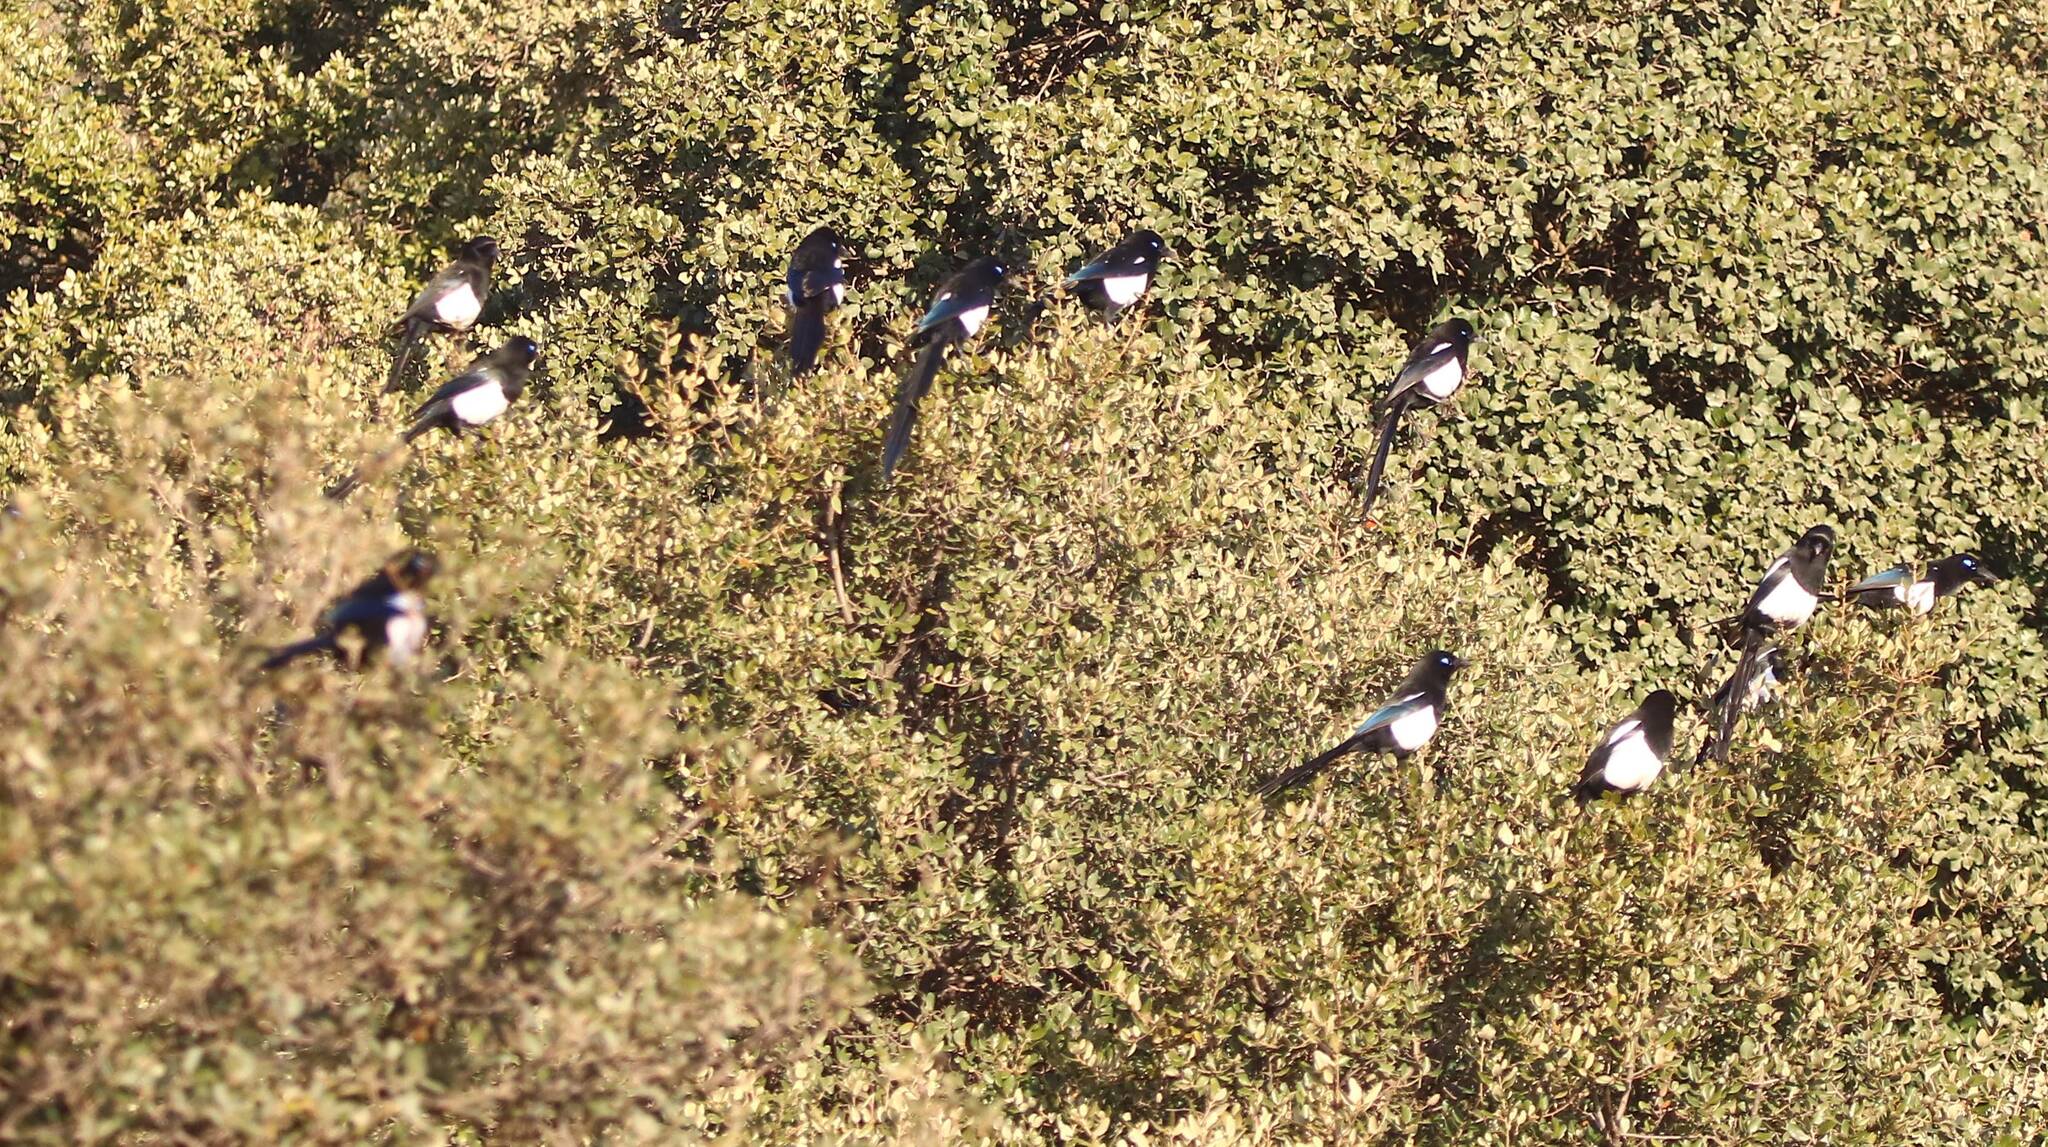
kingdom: Animalia
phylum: Chordata
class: Aves
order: Passeriformes
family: Corvidae
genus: Pica
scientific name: Pica mauritanica
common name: Maghreb magpie
